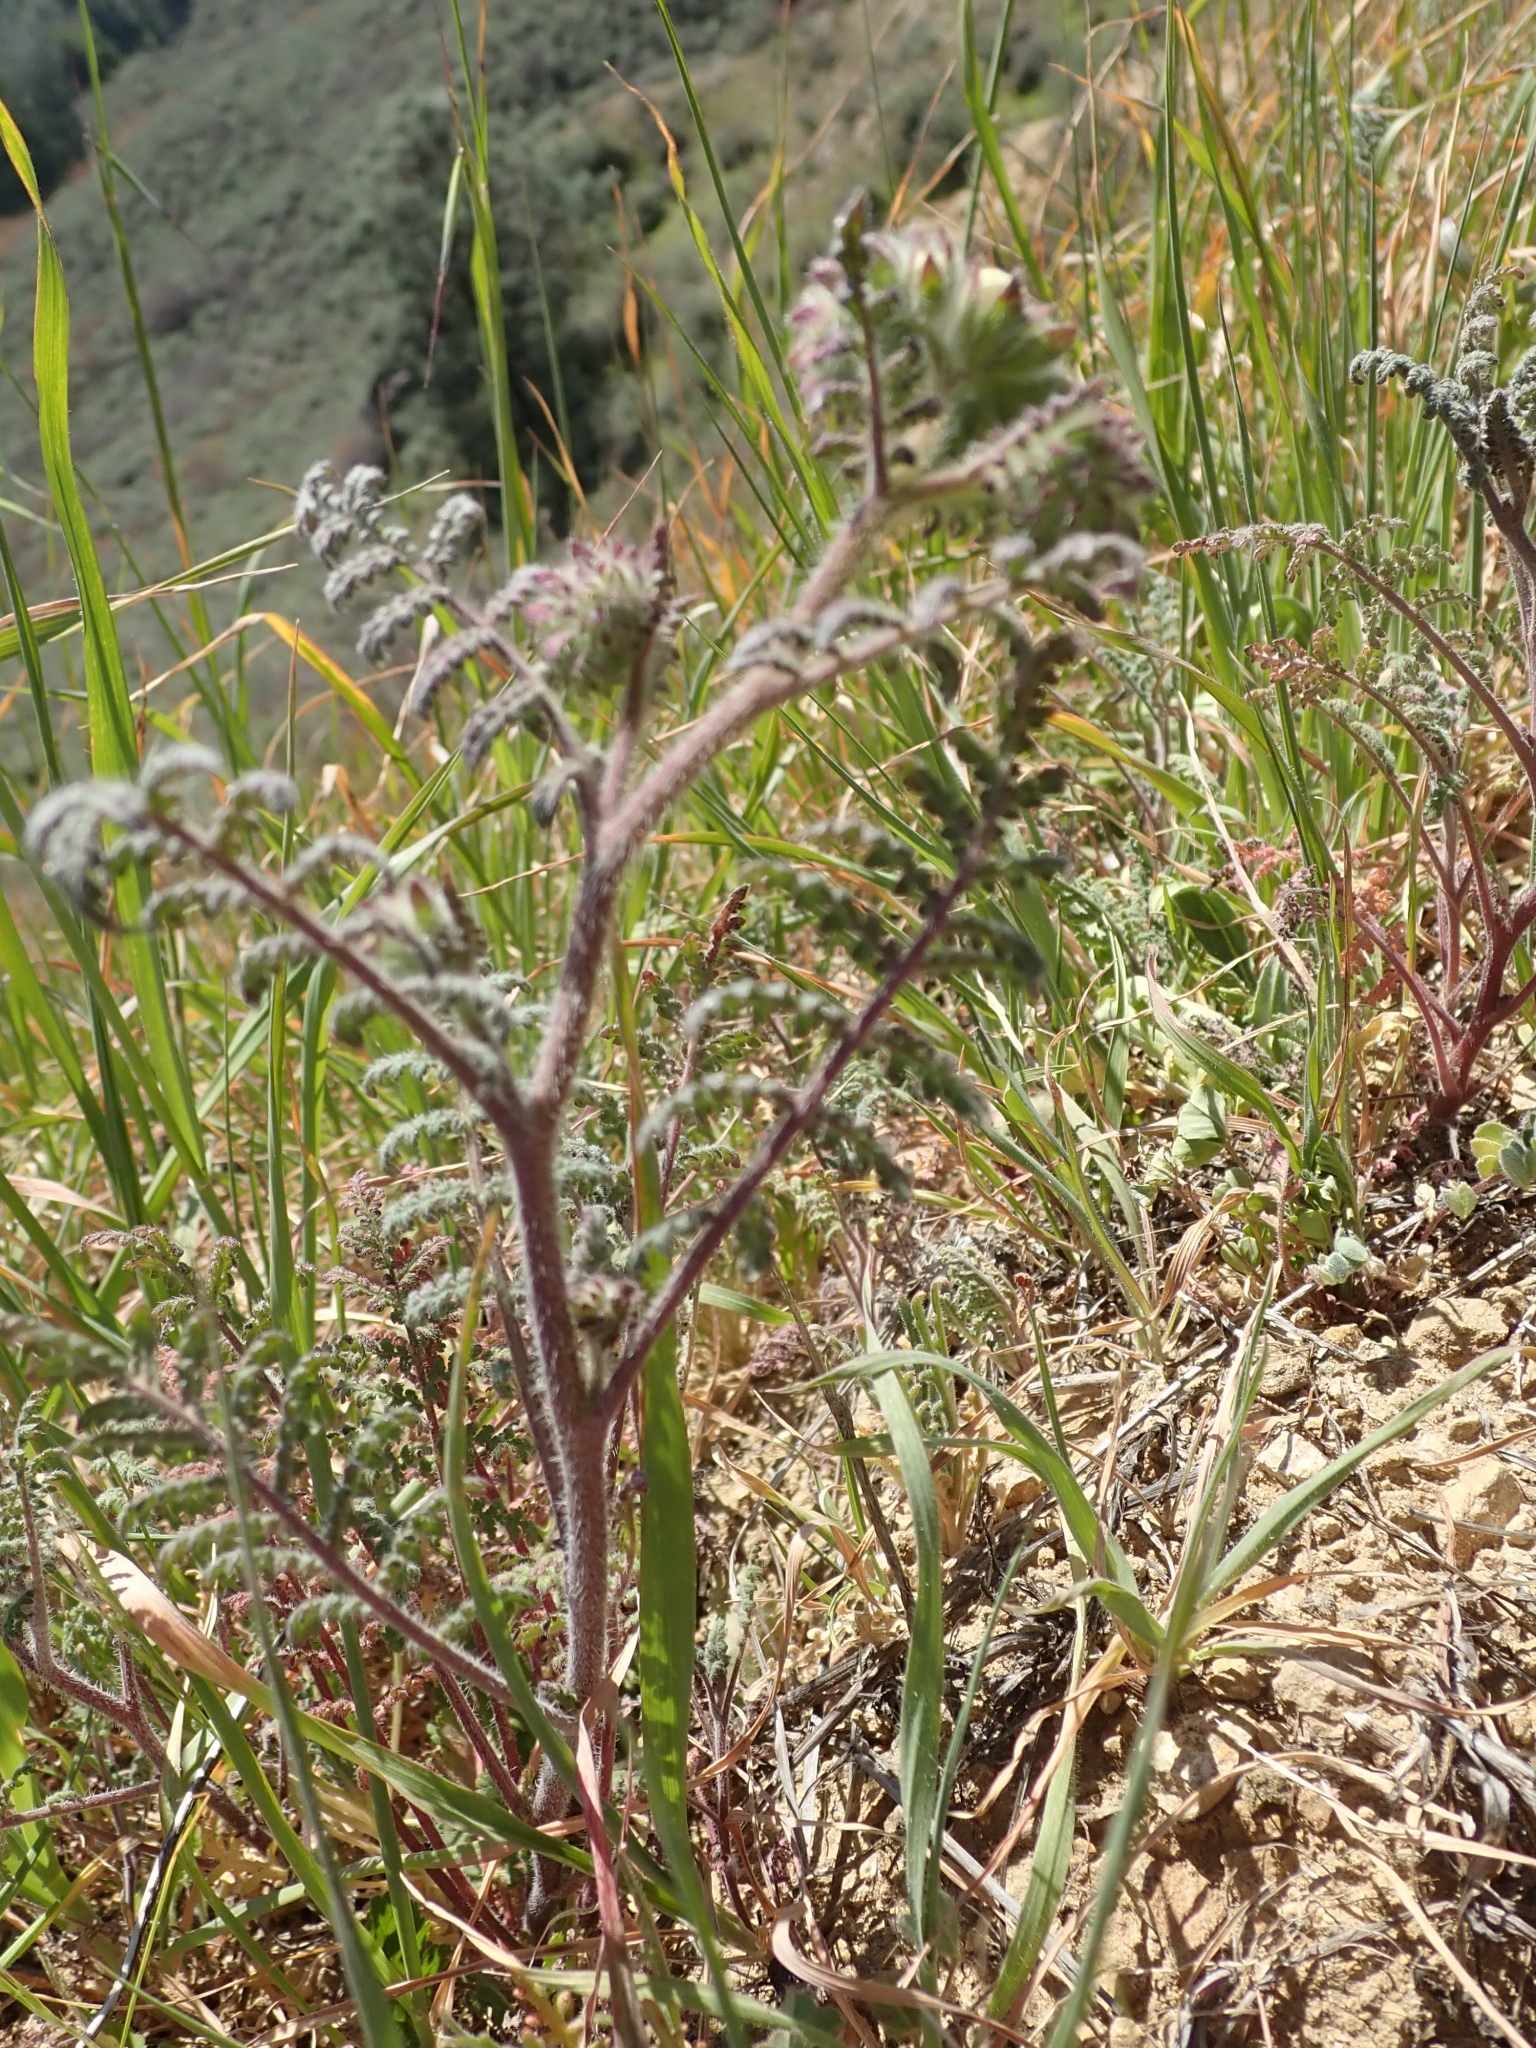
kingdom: Plantae
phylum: Tracheophyta
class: Magnoliopsida
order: Boraginales
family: Hydrophyllaceae
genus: Phacelia
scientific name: Phacelia distans
